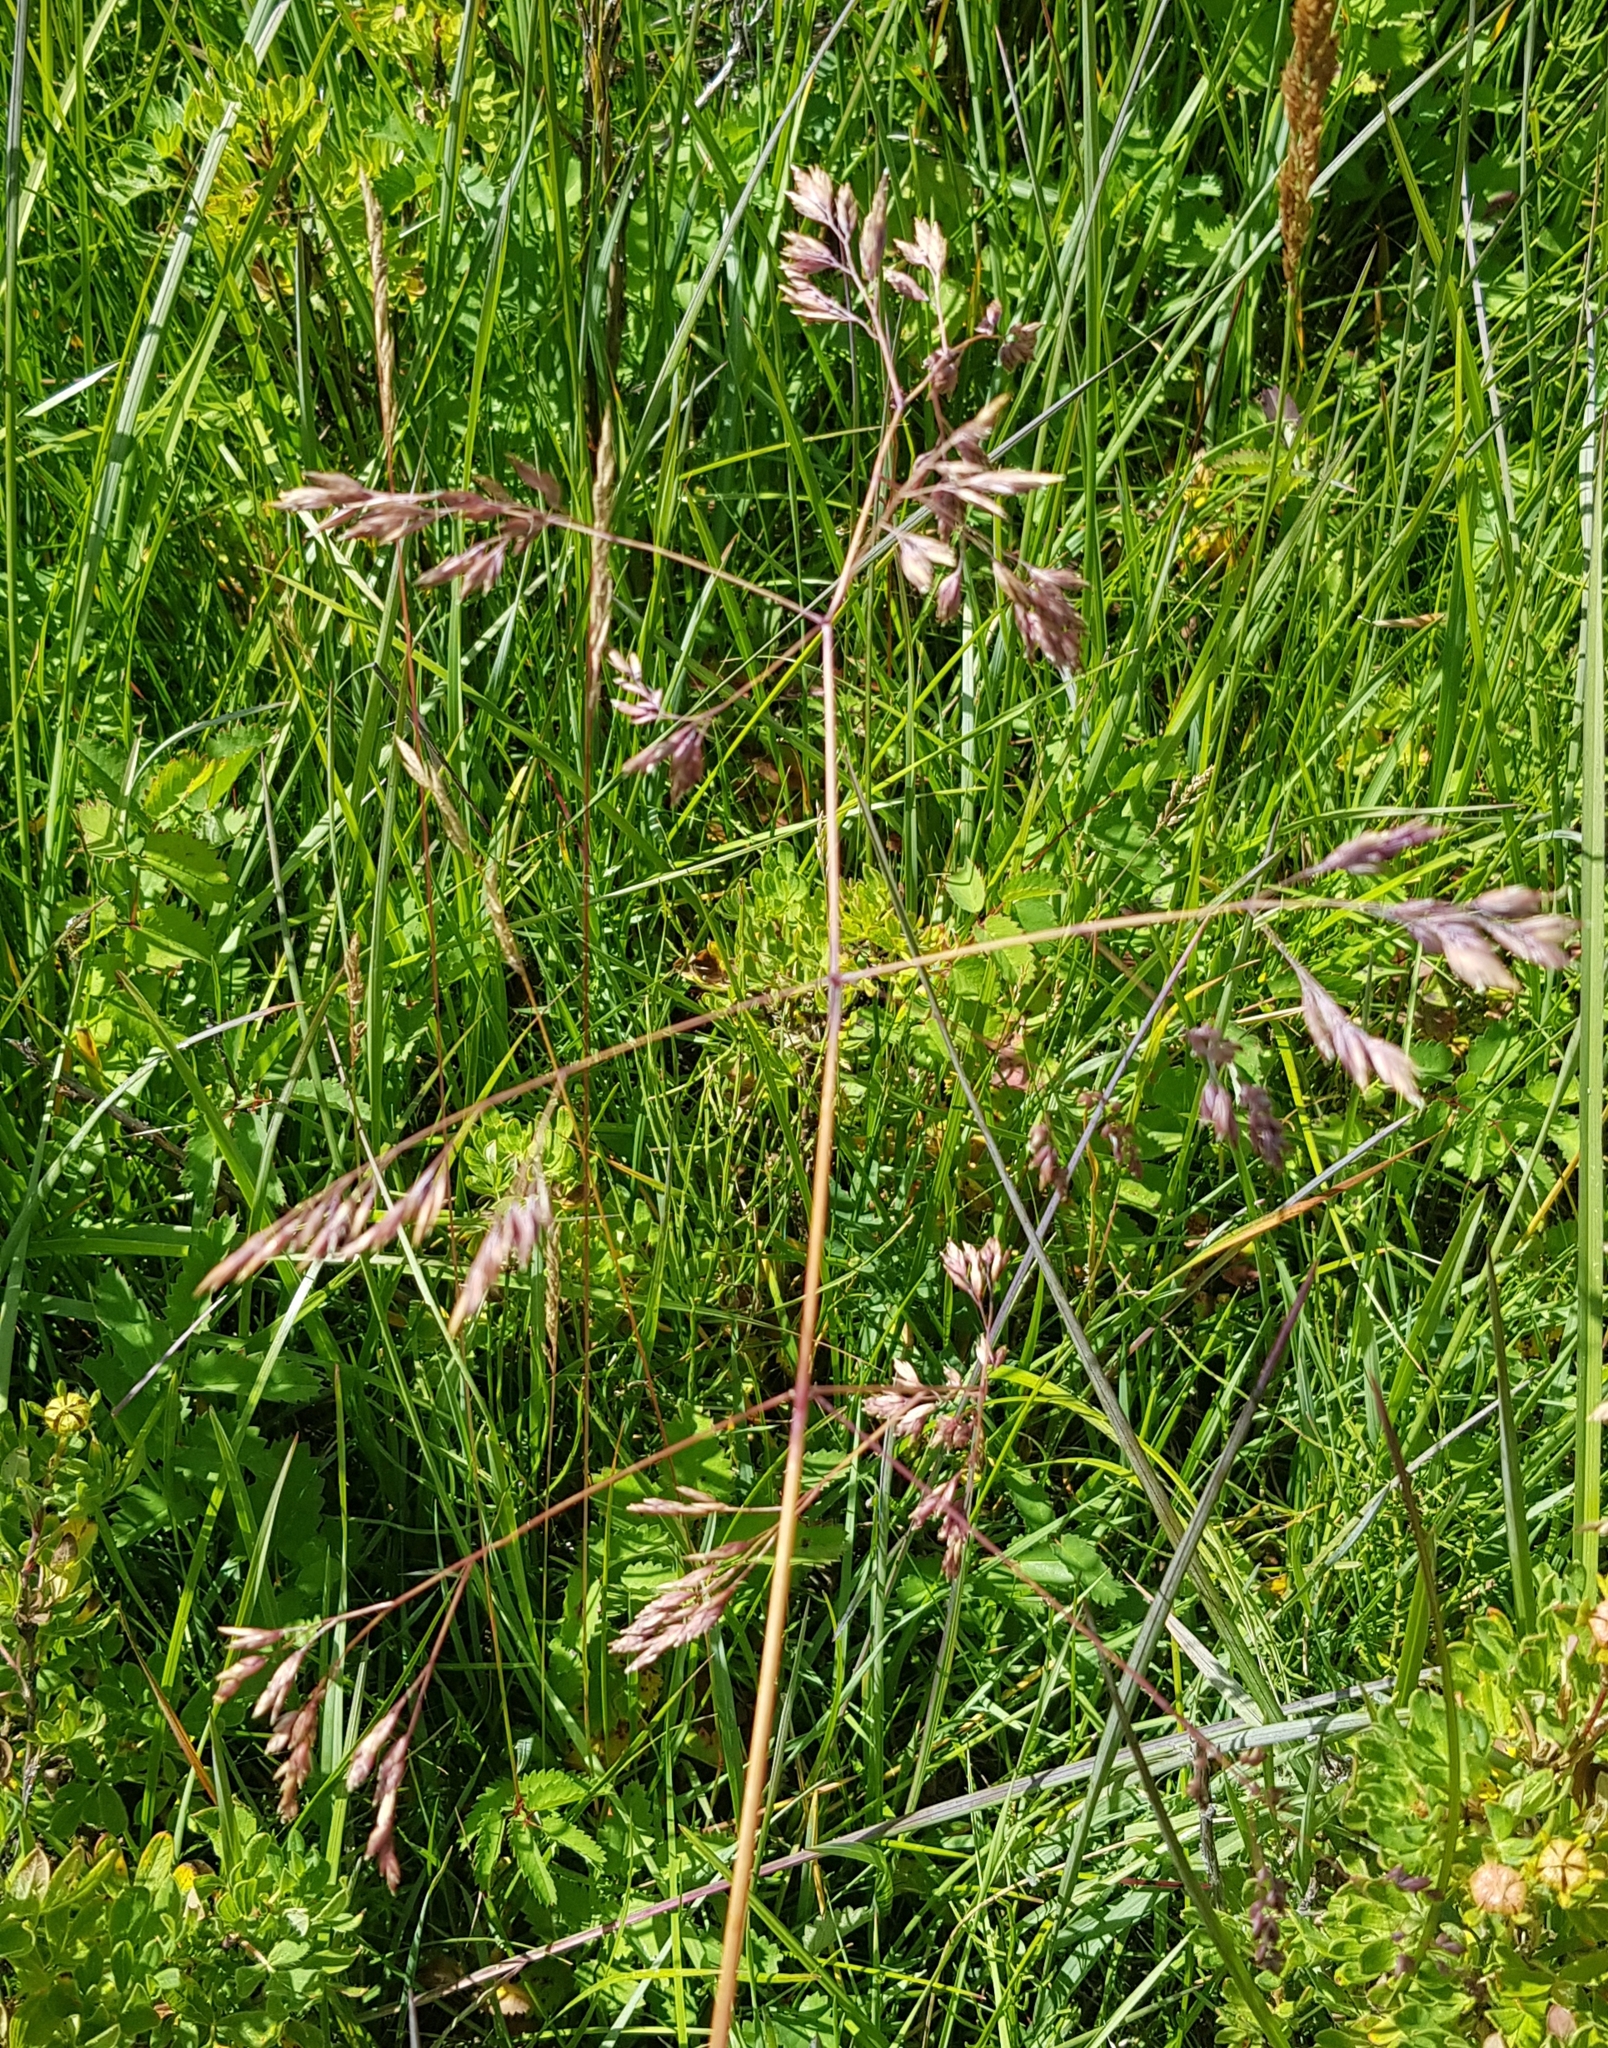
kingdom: Plantae
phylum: Tracheophyta
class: Liliopsida
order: Poales
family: Poaceae
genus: Poa
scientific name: Poa subfastigiata
